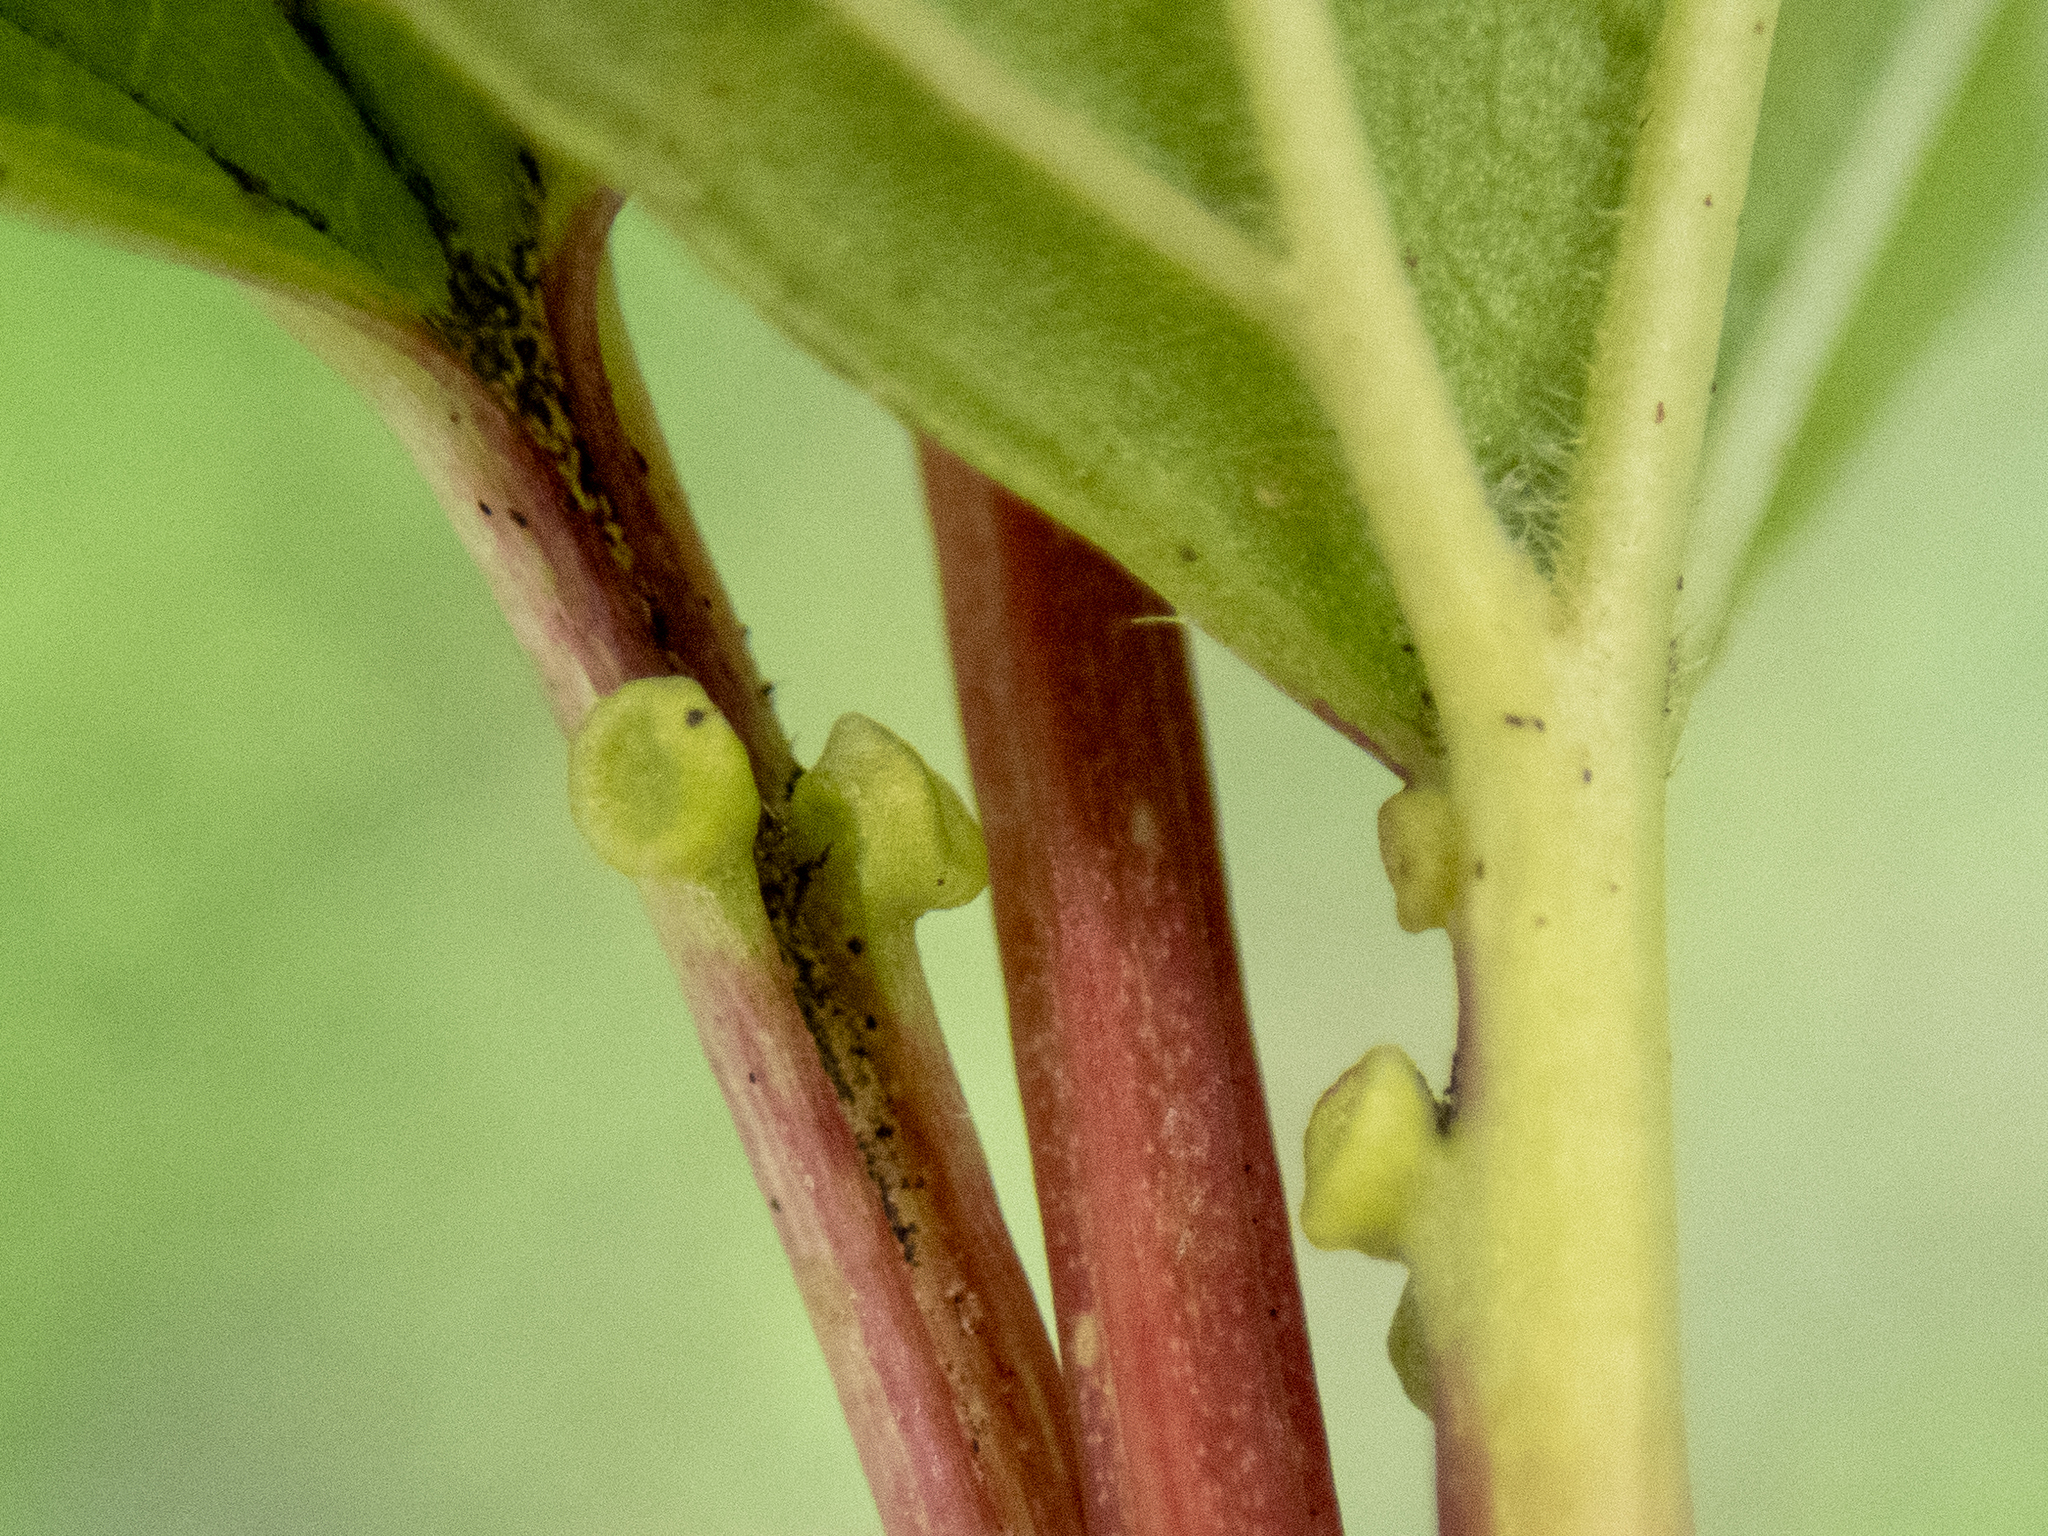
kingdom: Plantae
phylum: Tracheophyta
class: Magnoliopsida
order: Dipsacales
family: Viburnaceae
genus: Viburnum
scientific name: Viburnum opulus
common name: Guelder-rose
